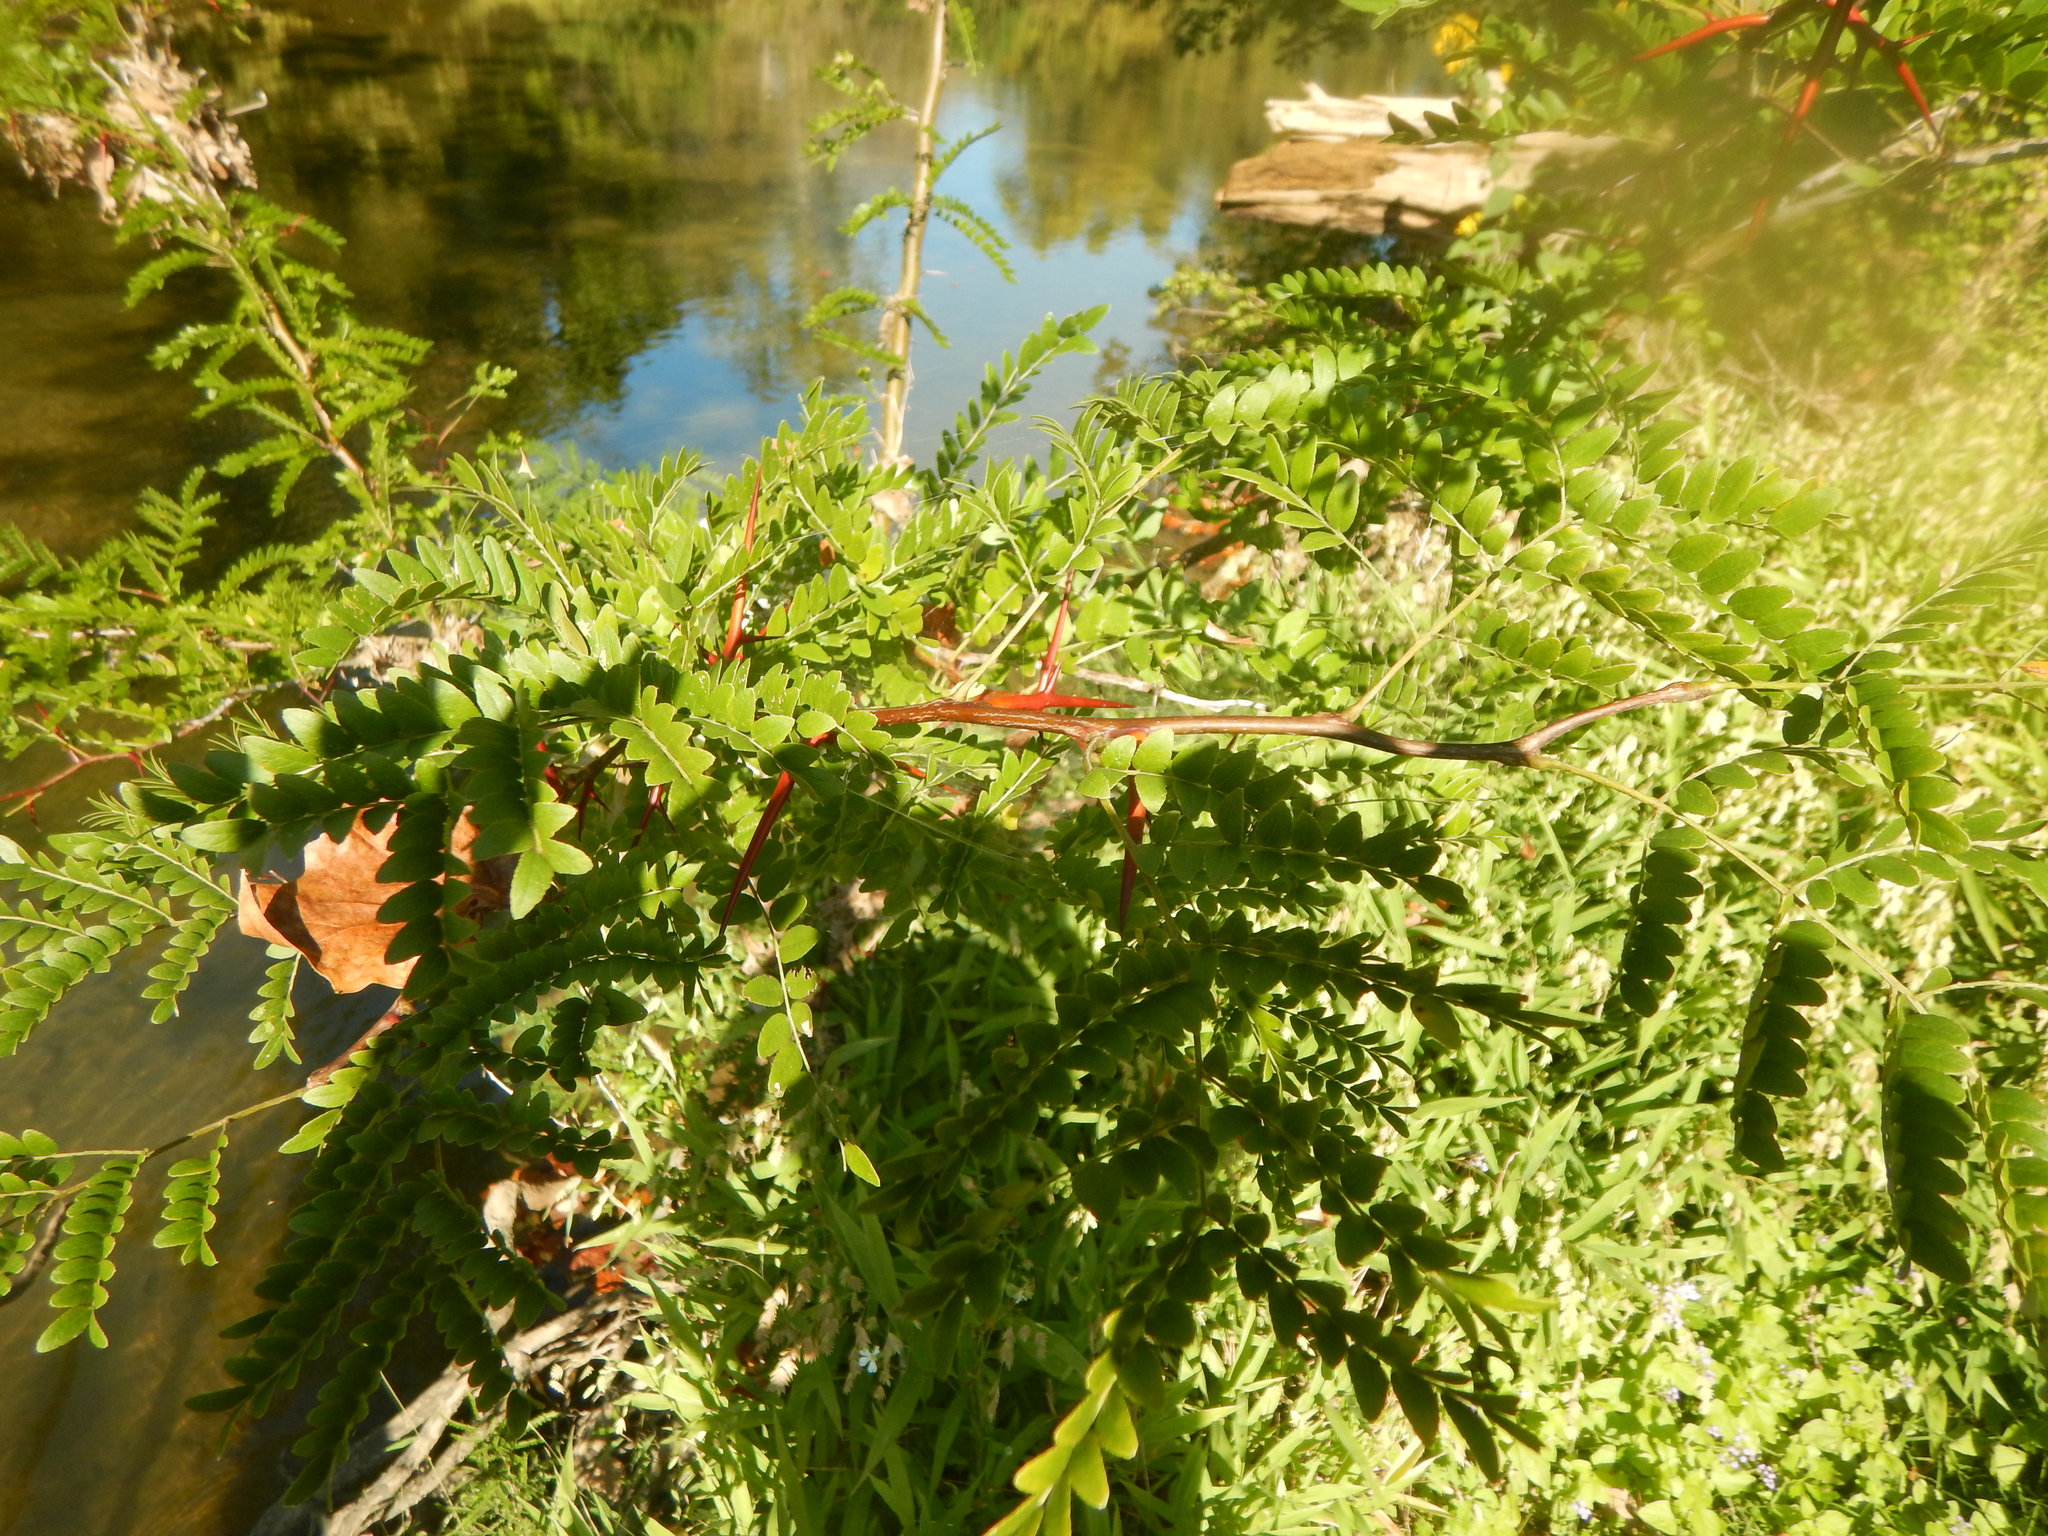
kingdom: Plantae
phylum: Tracheophyta
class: Magnoliopsida
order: Fabales
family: Fabaceae
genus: Gleditsia
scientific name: Gleditsia triacanthos
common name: Common honeylocust
